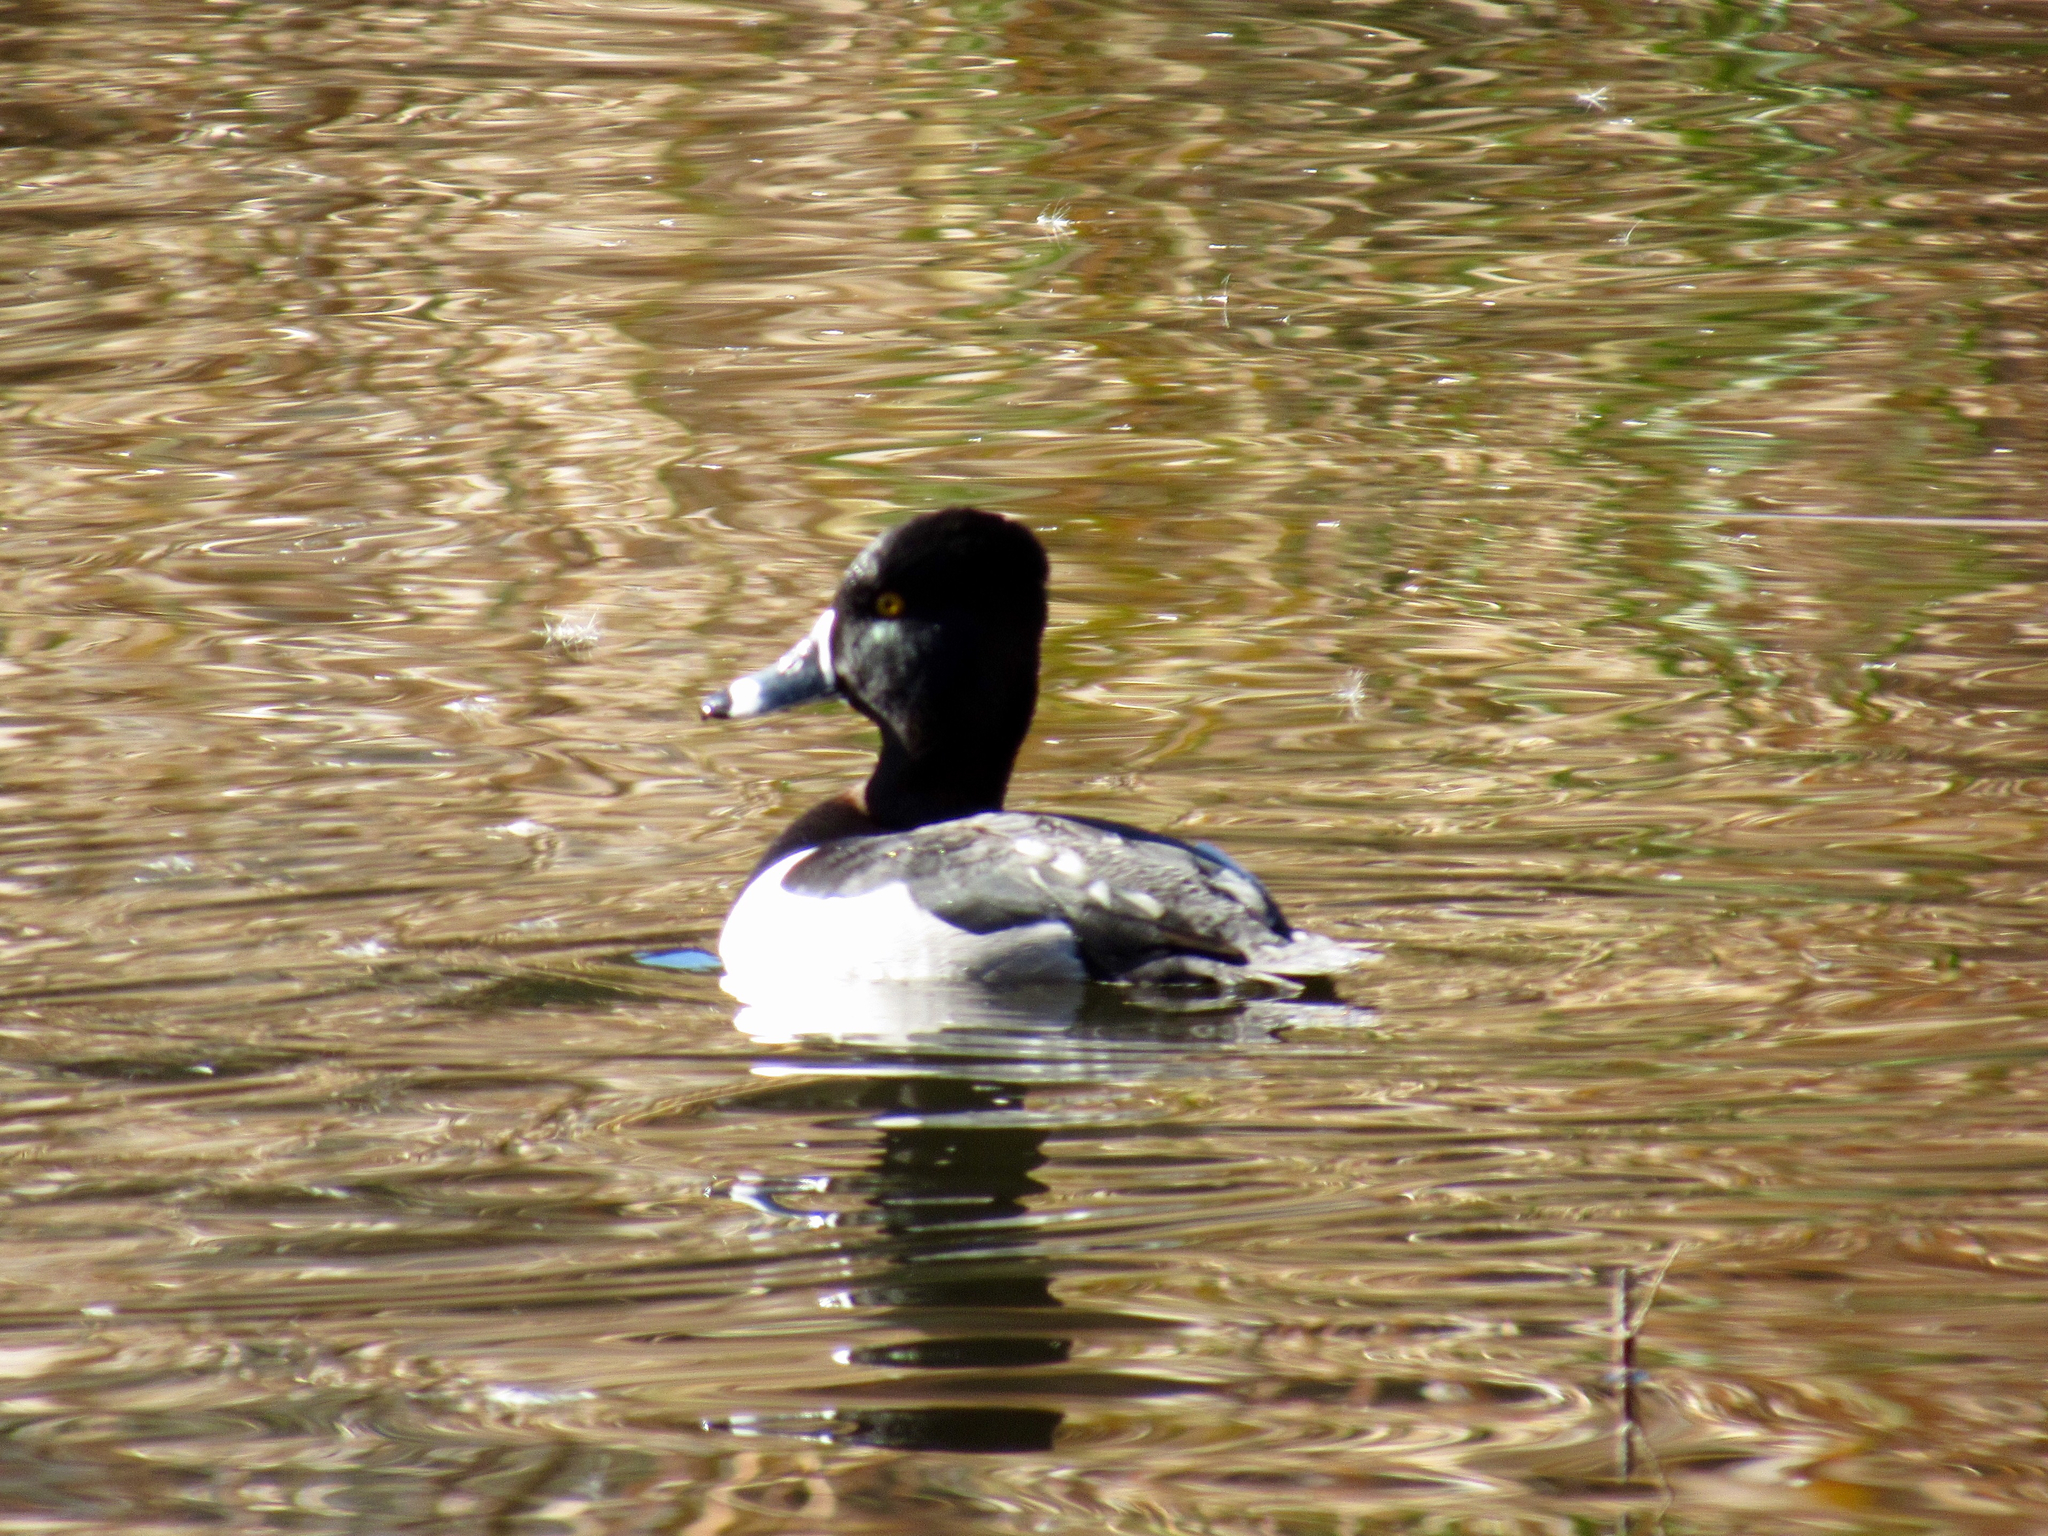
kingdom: Animalia
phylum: Chordata
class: Aves
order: Anseriformes
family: Anatidae
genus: Aythya
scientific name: Aythya collaris
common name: Ring-necked duck
